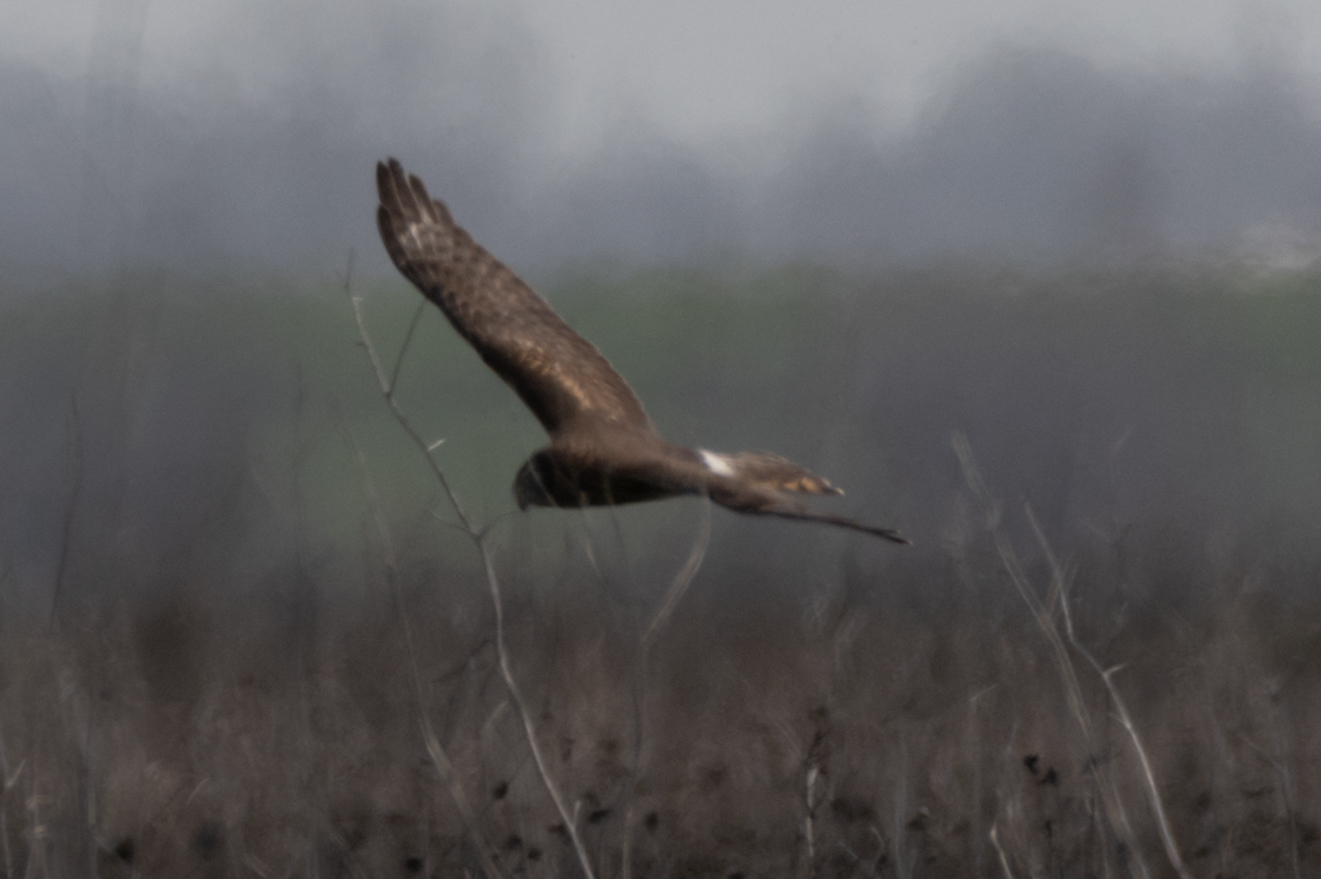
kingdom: Animalia
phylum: Chordata
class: Aves
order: Accipitriformes
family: Accipitridae
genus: Circus
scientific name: Circus cyaneus
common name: Hen harrier
